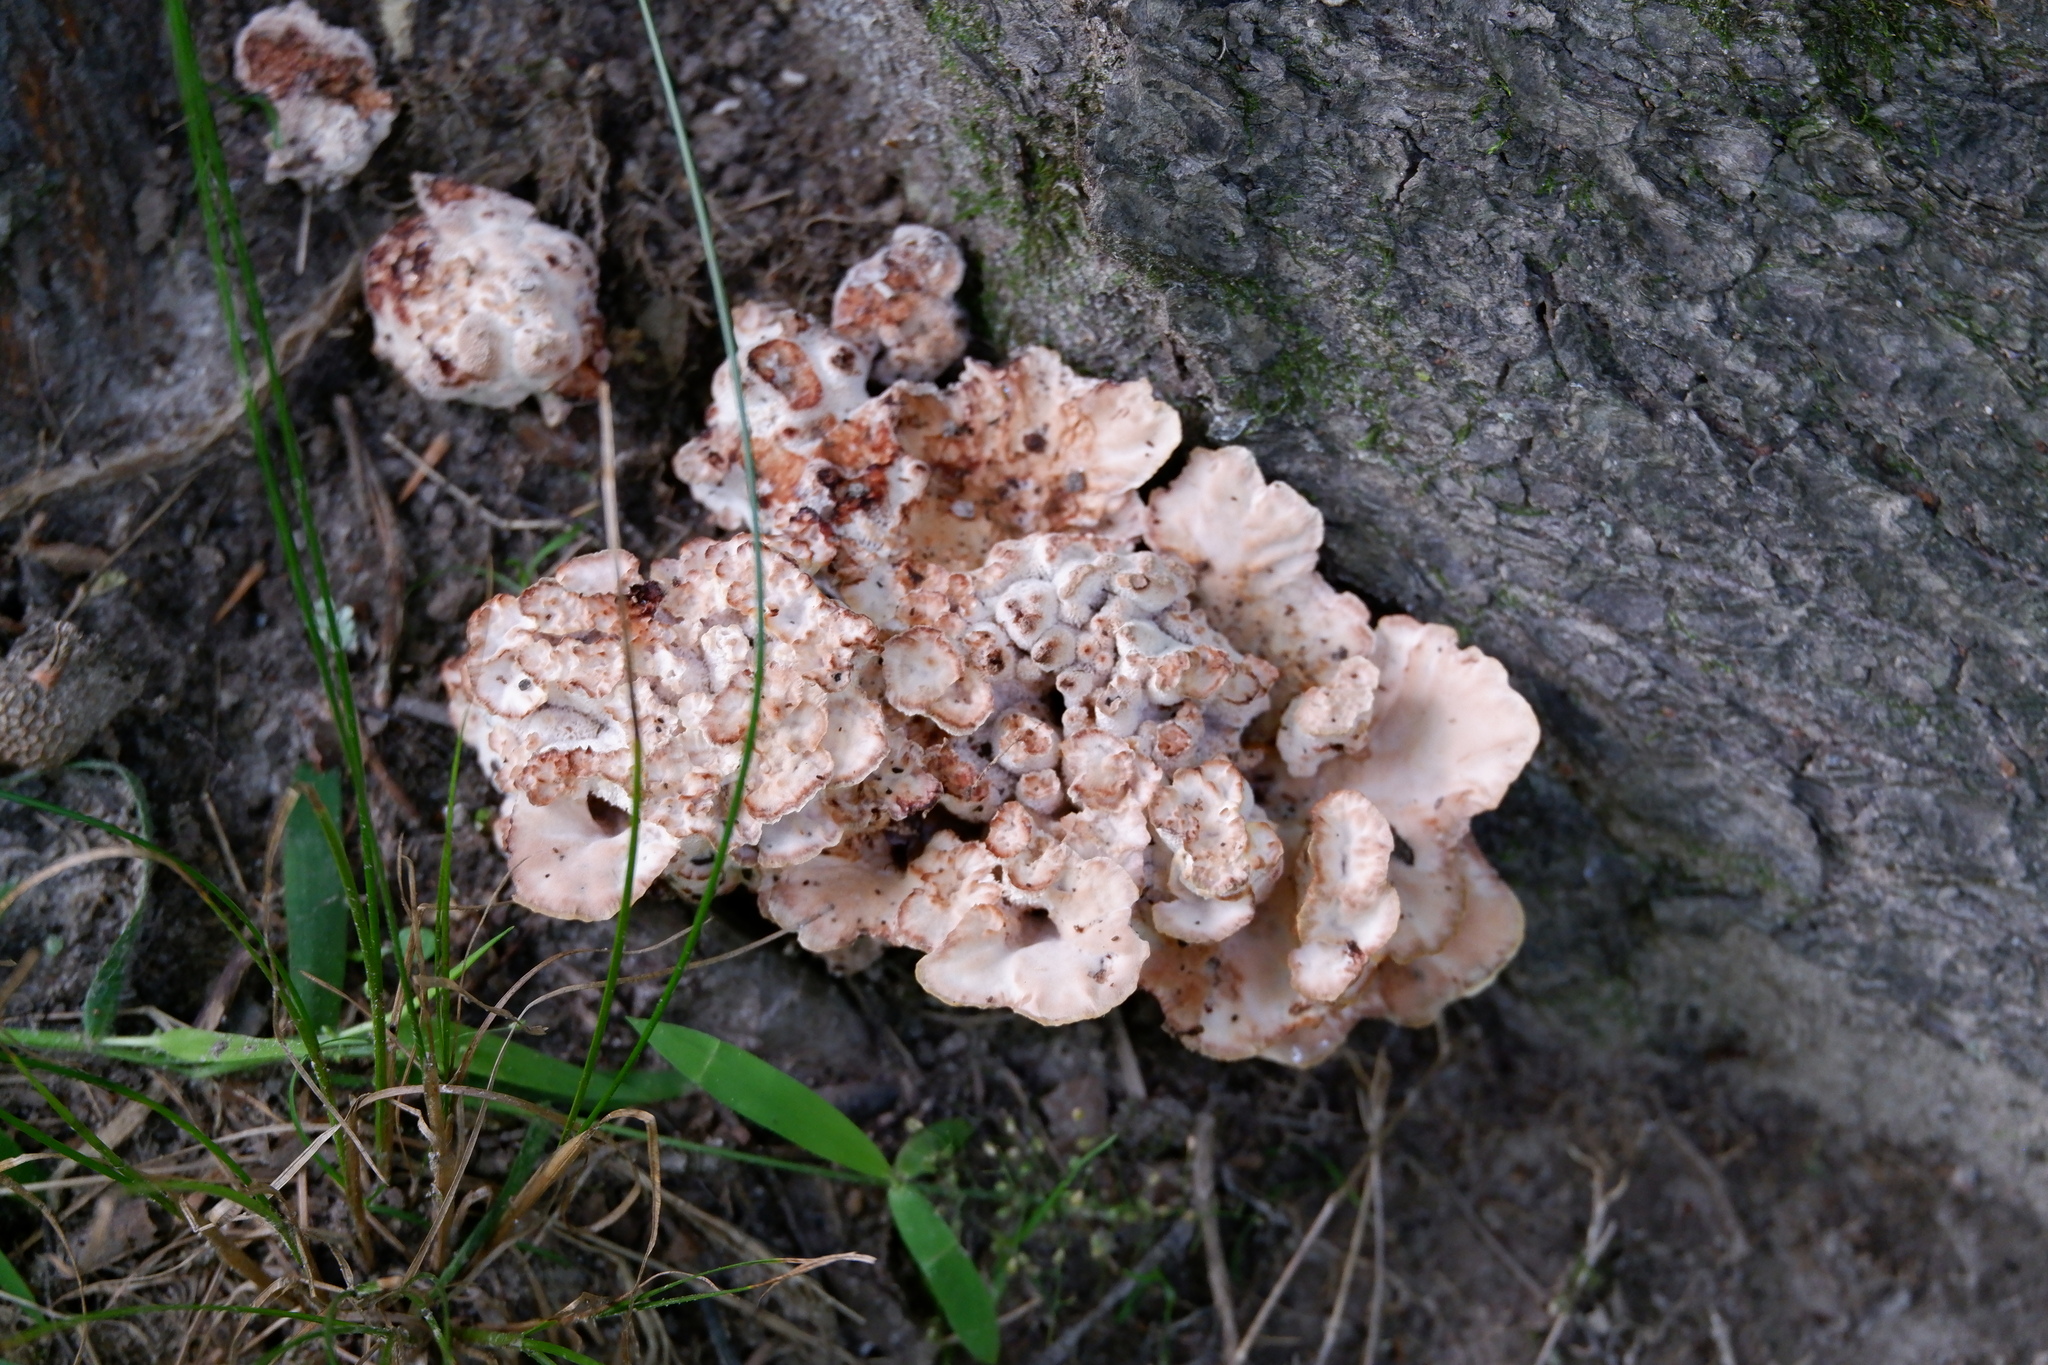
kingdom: Fungi
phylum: Basidiomycota
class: Agaricomycetes
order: Polyporales
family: Podoscyphaceae
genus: Abortiporus
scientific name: Abortiporus biennis
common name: Blushing rosette
